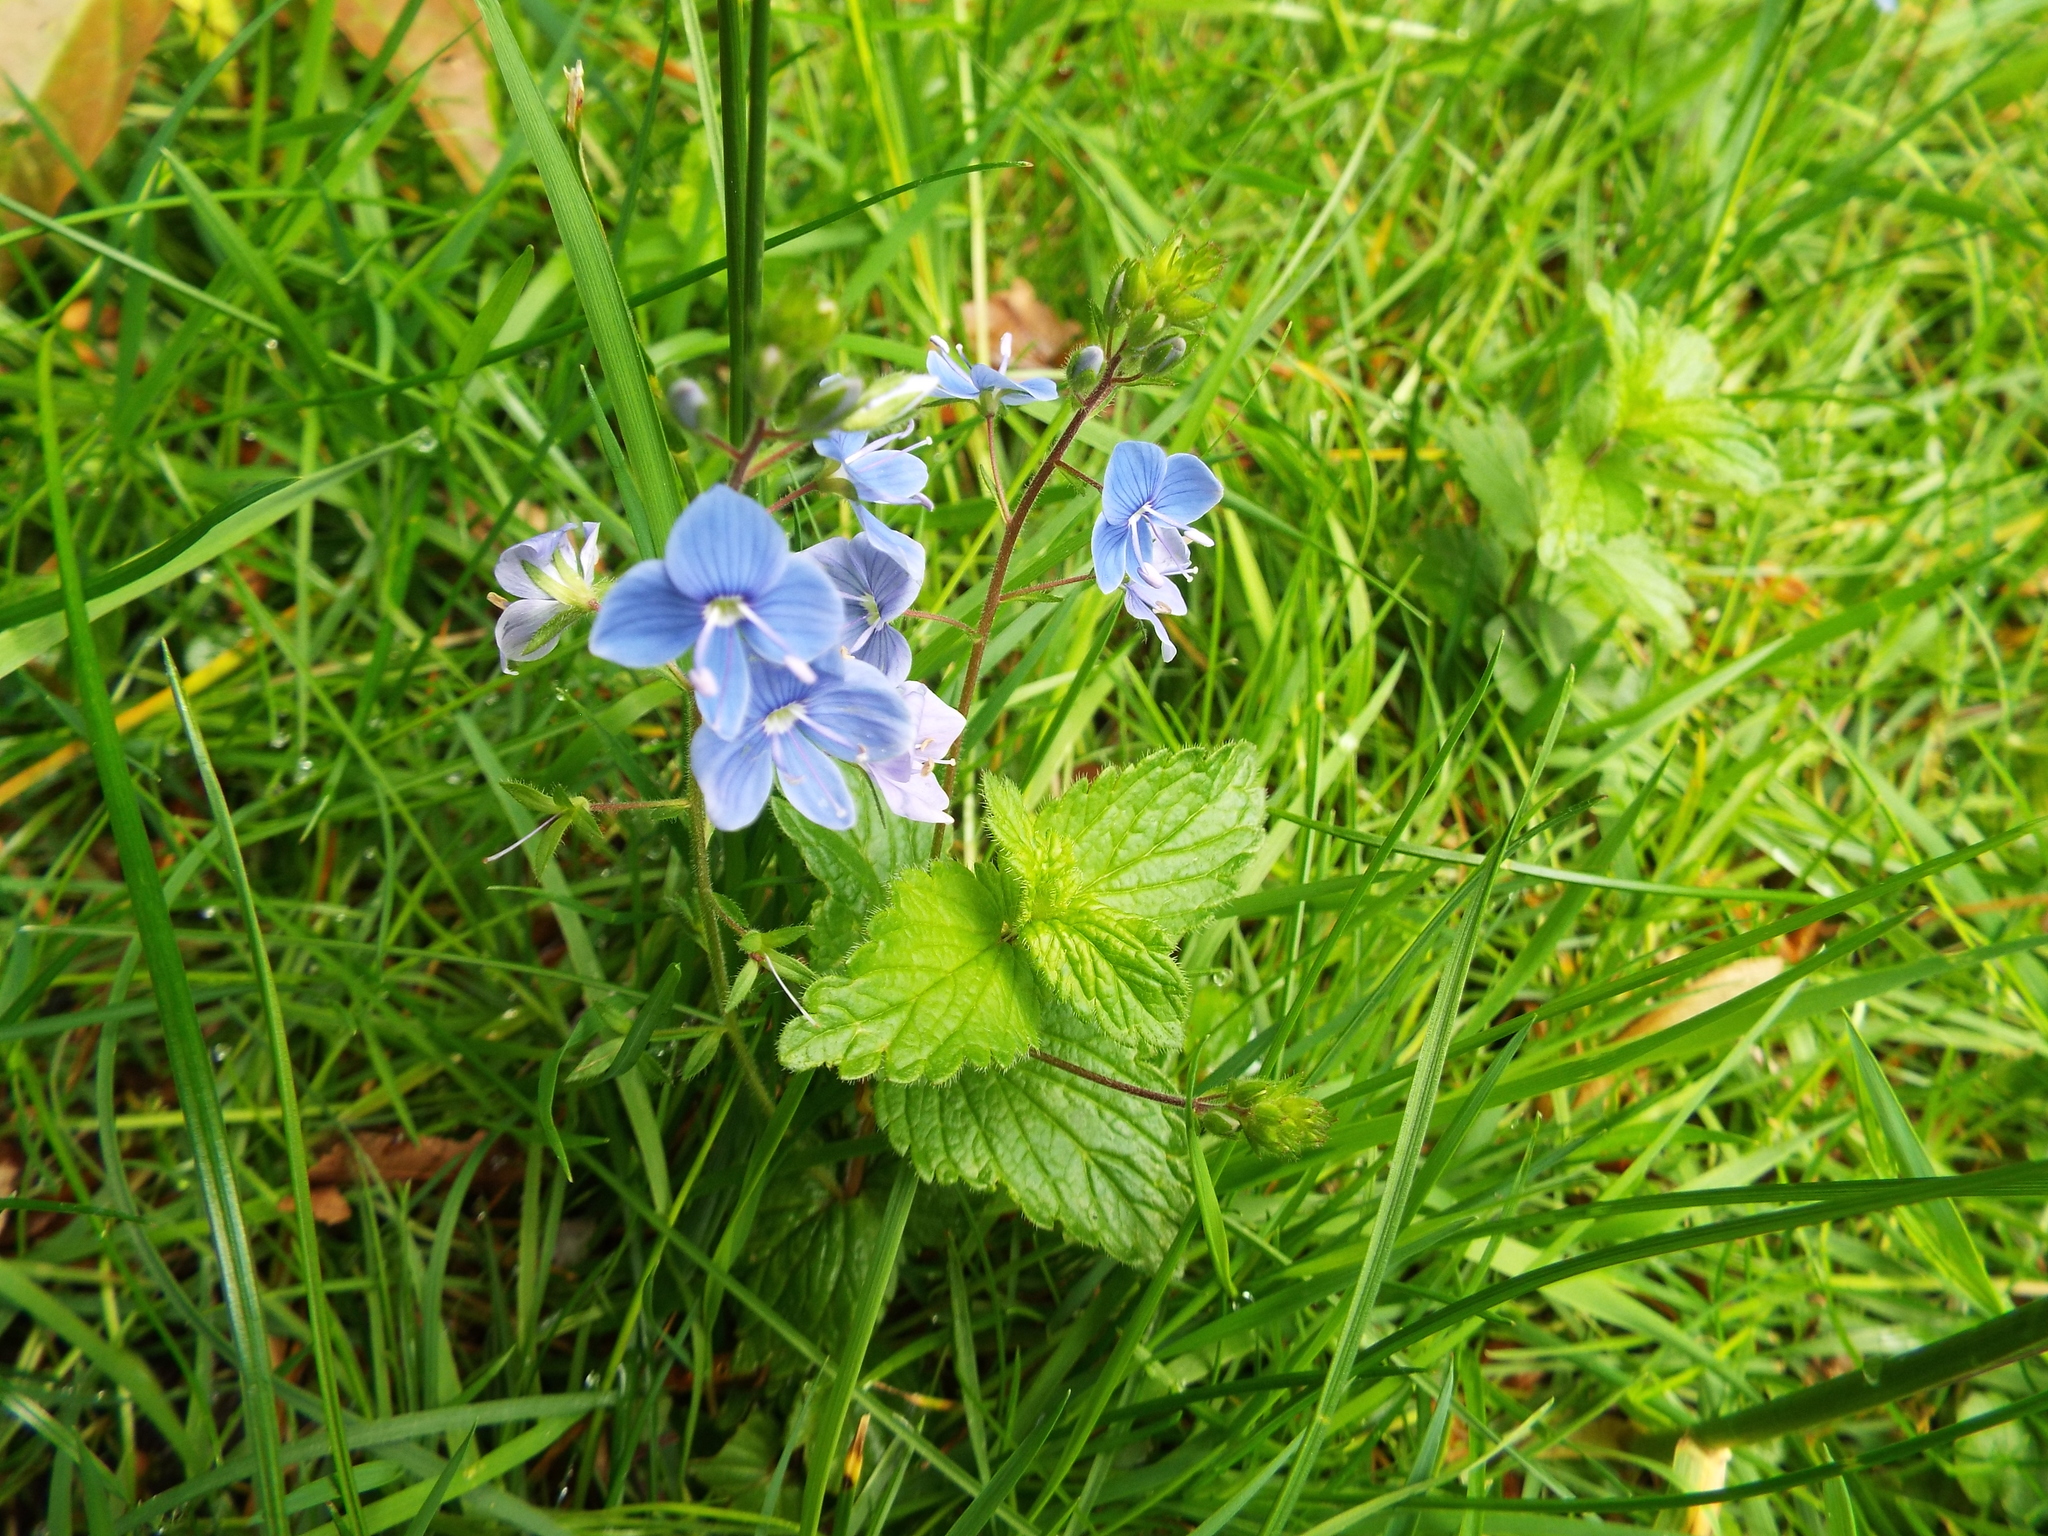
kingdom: Plantae
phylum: Tracheophyta
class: Magnoliopsida
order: Lamiales
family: Plantaginaceae
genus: Veronica
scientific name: Veronica chamaedrys
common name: Germander speedwell
